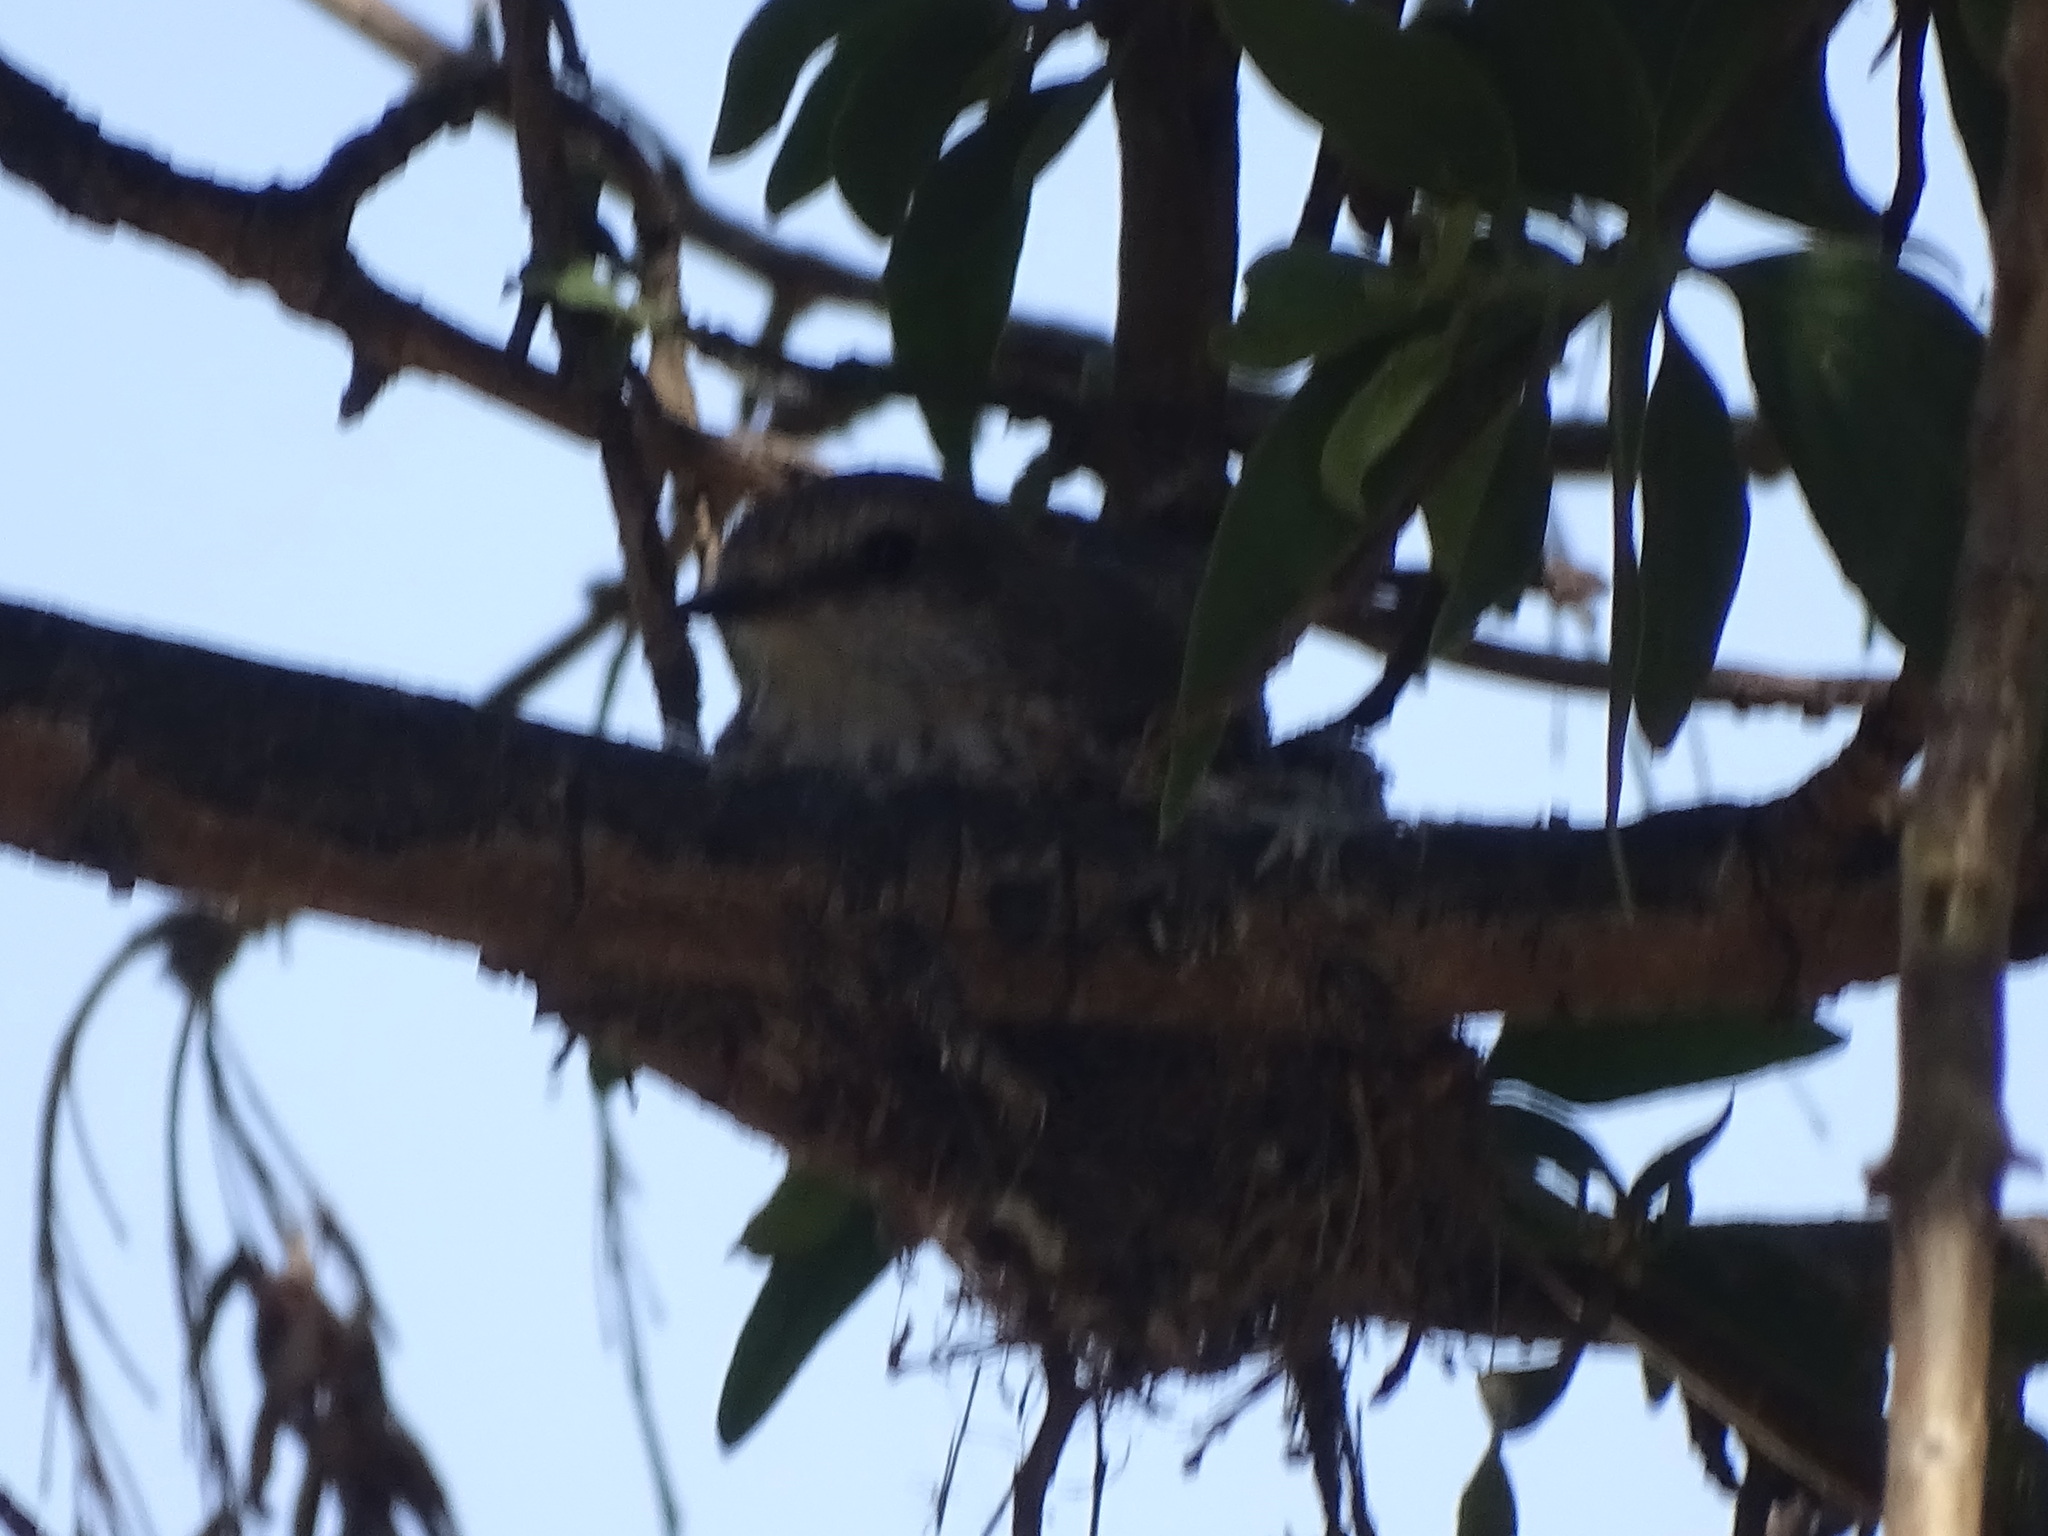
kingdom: Animalia
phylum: Chordata
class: Aves
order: Passeriformes
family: Tyrannidae
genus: Pyrocephalus
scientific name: Pyrocephalus rubinus
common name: Vermilion flycatcher
